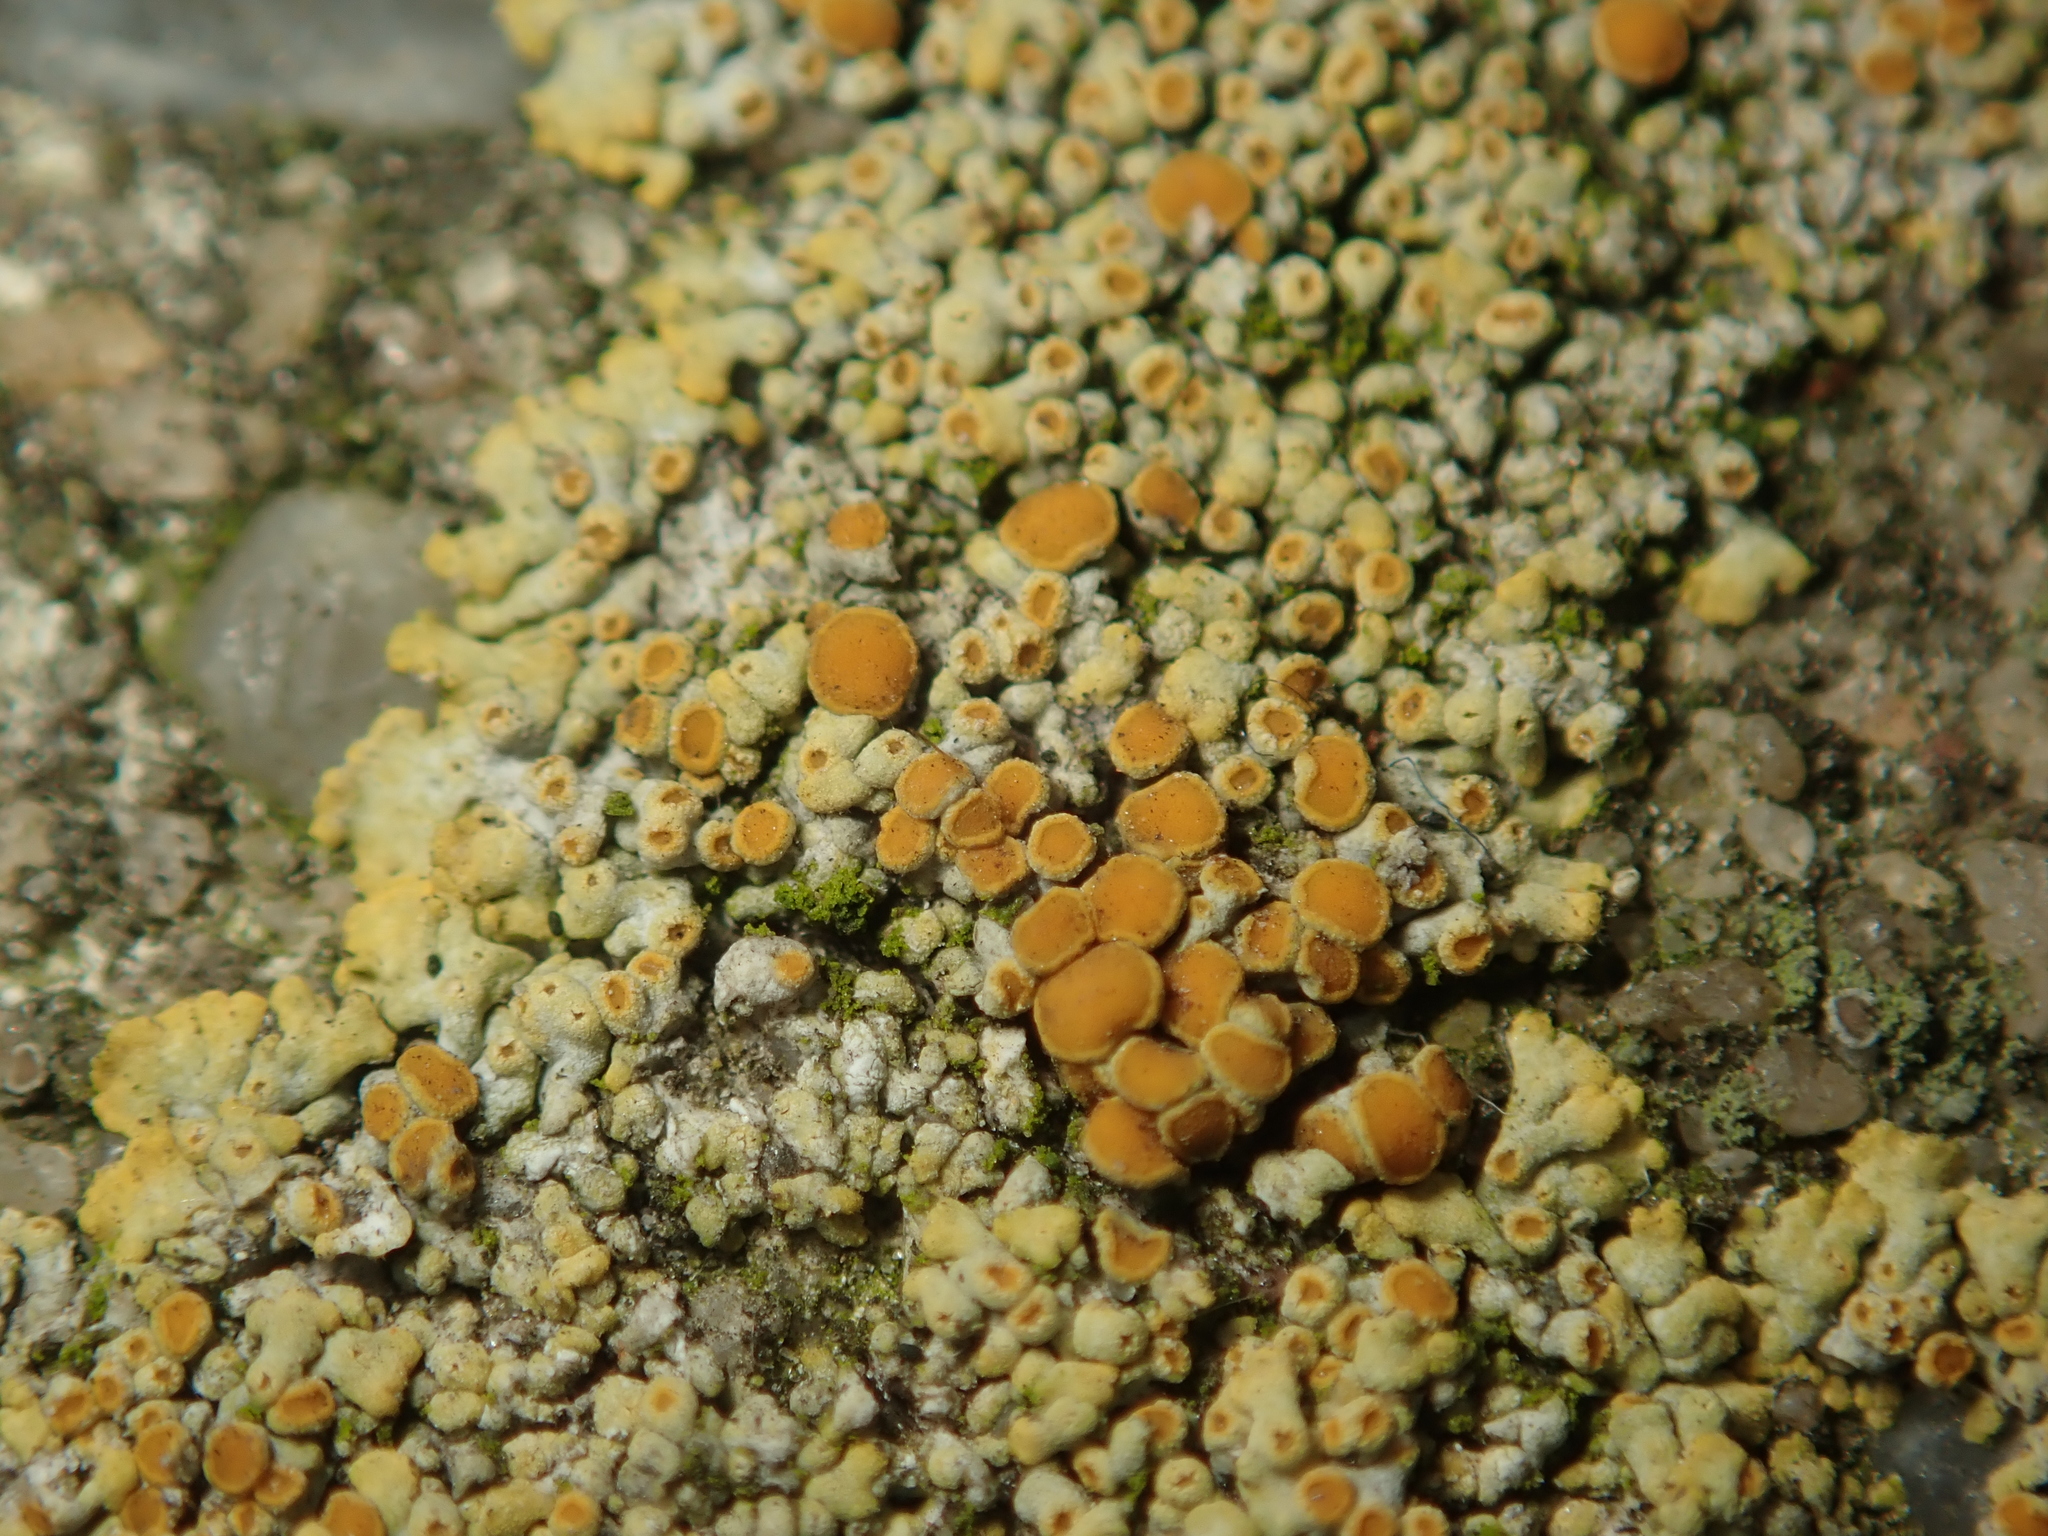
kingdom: Fungi
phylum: Ascomycota
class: Lecanoromycetes
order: Teloschistales
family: Teloschistaceae
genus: Calogaya
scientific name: Calogaya pusilla
